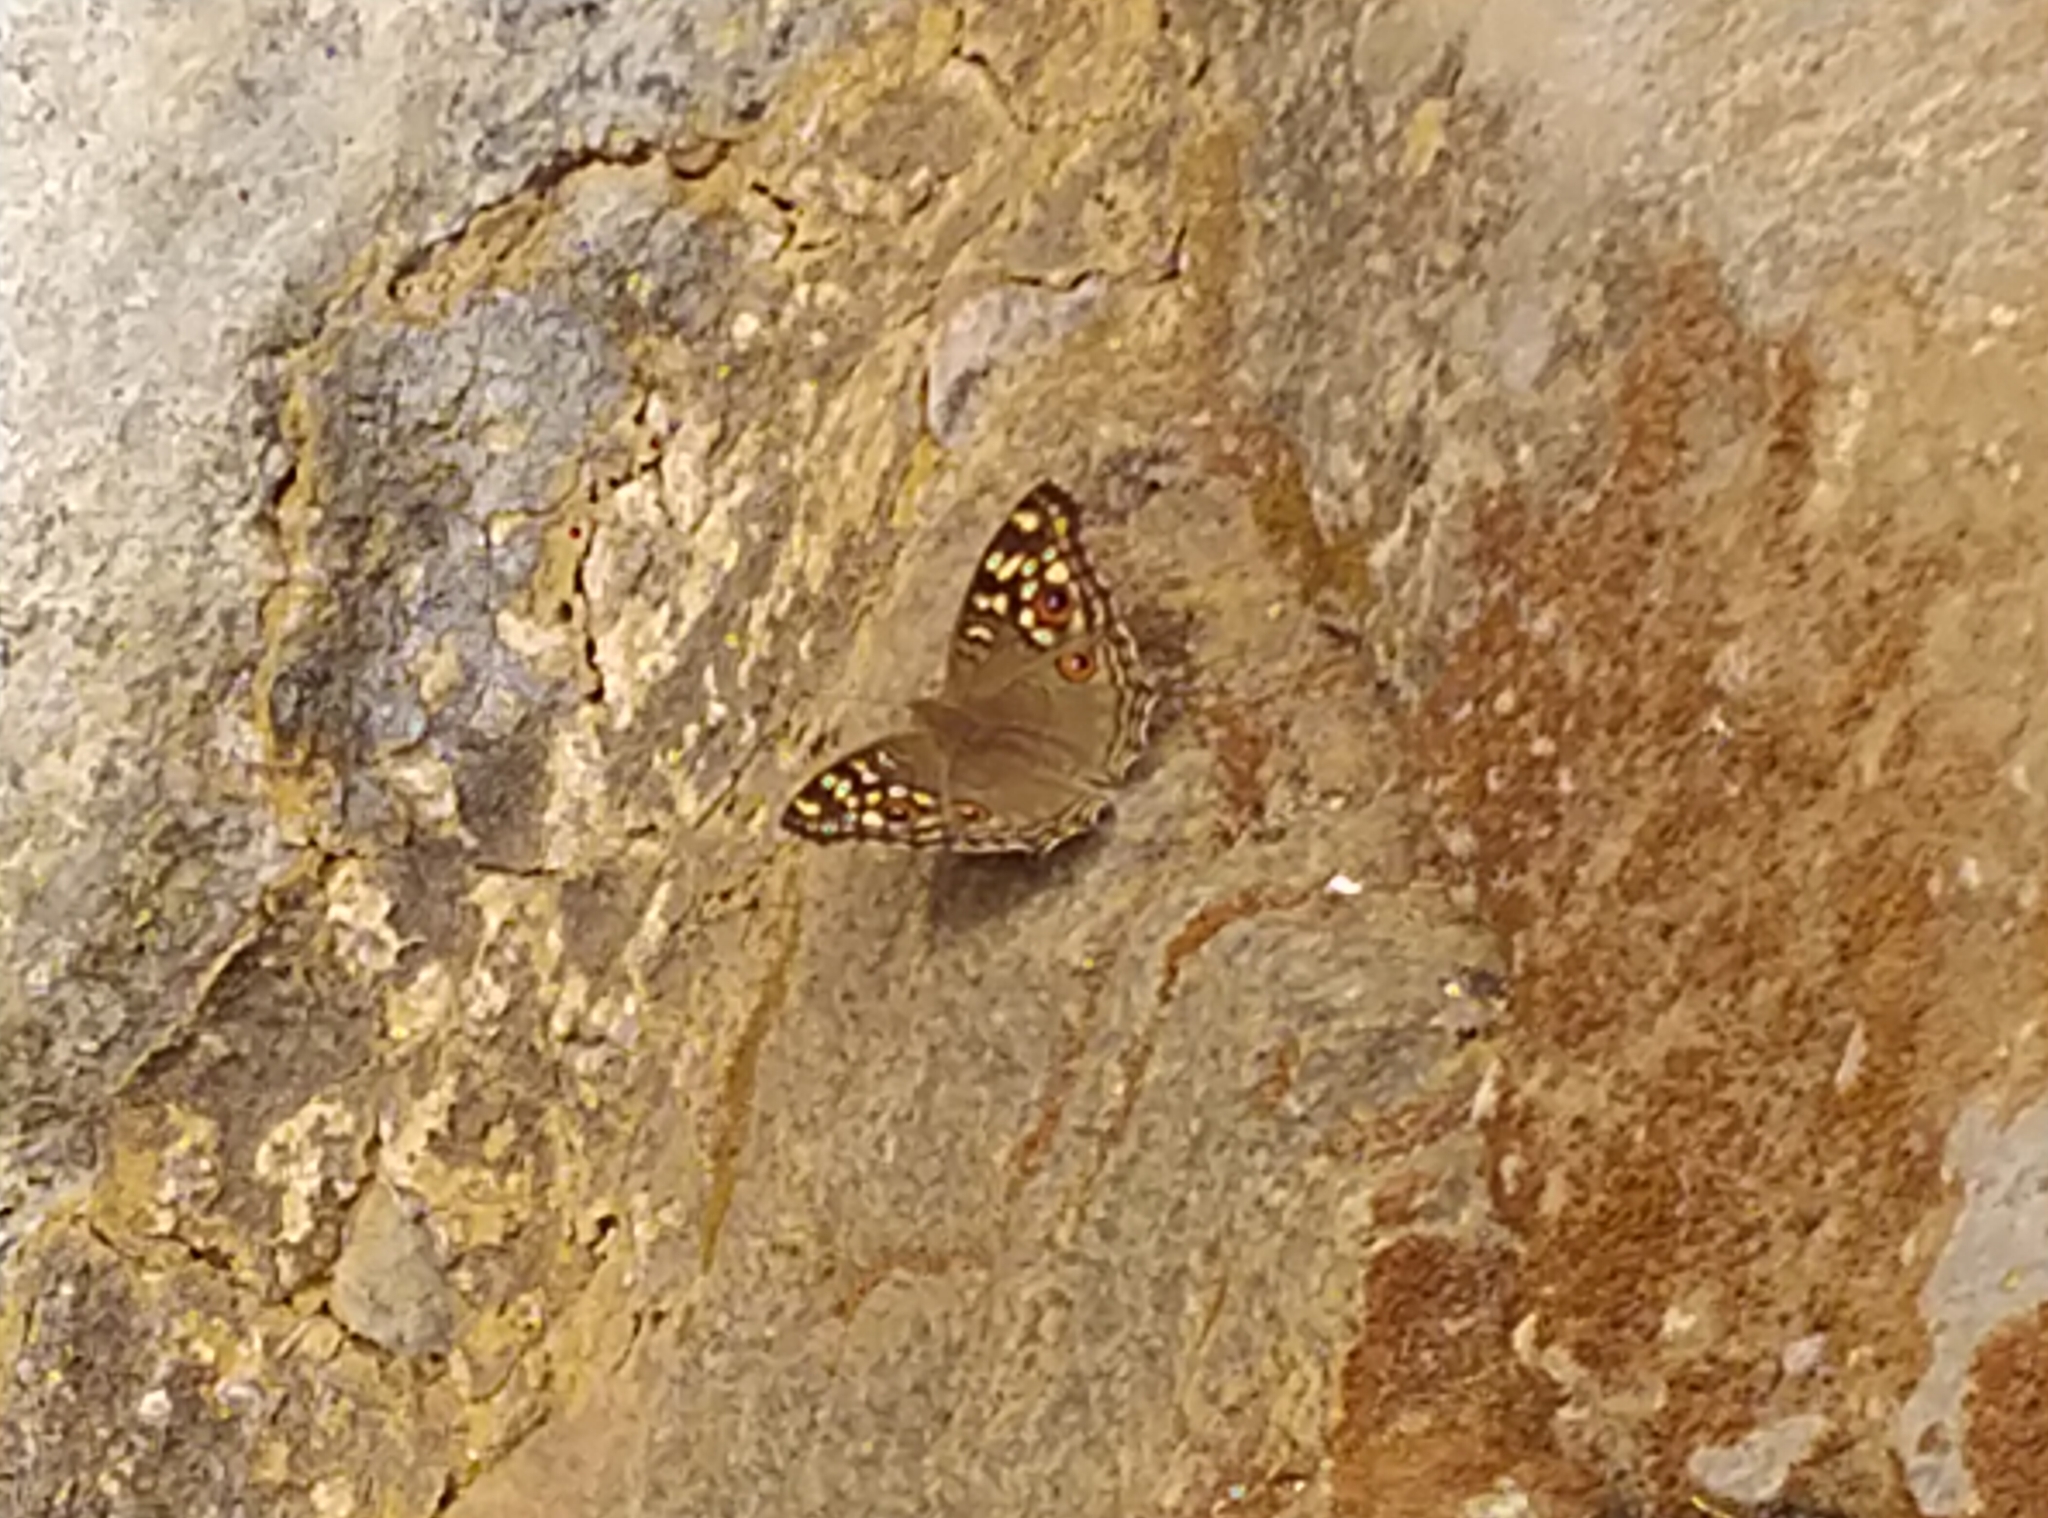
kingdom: Animalia
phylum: Arthropoda
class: Insecta
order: Lepidoptera
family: Nymphalidae
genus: Junonia
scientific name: Junonia lemonias
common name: Lemon pansy
